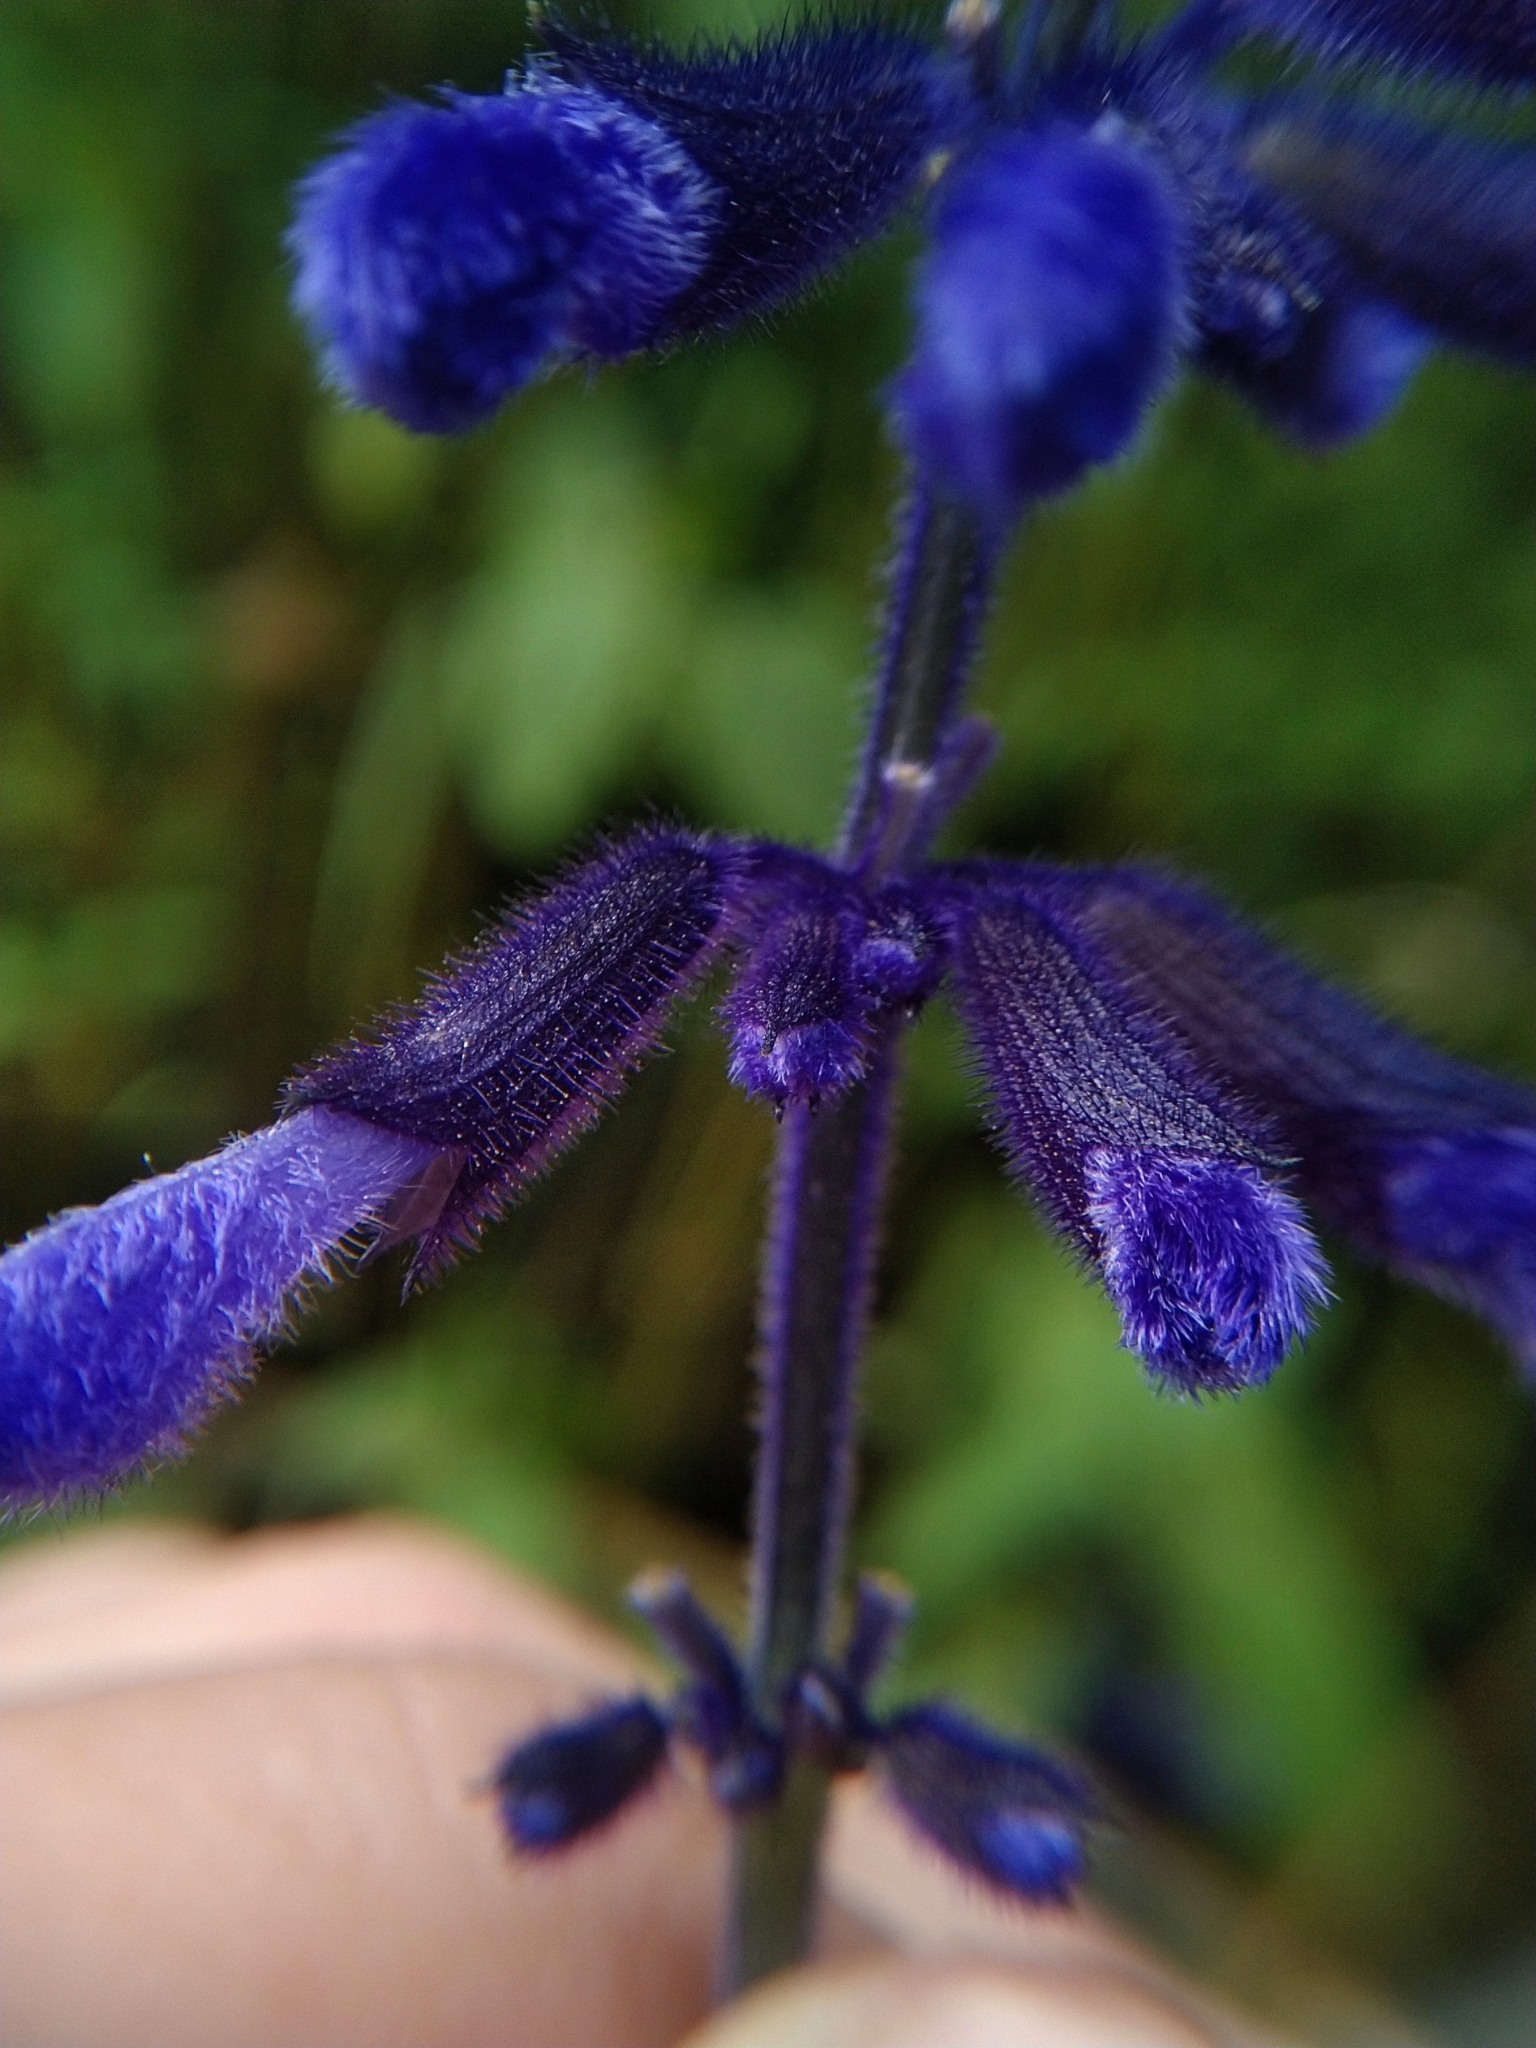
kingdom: Plantae
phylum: Tracheophyta
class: Magnoliopsida
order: Lamiales
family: Lamiaceae
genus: Salvia
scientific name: Salvia concolor
